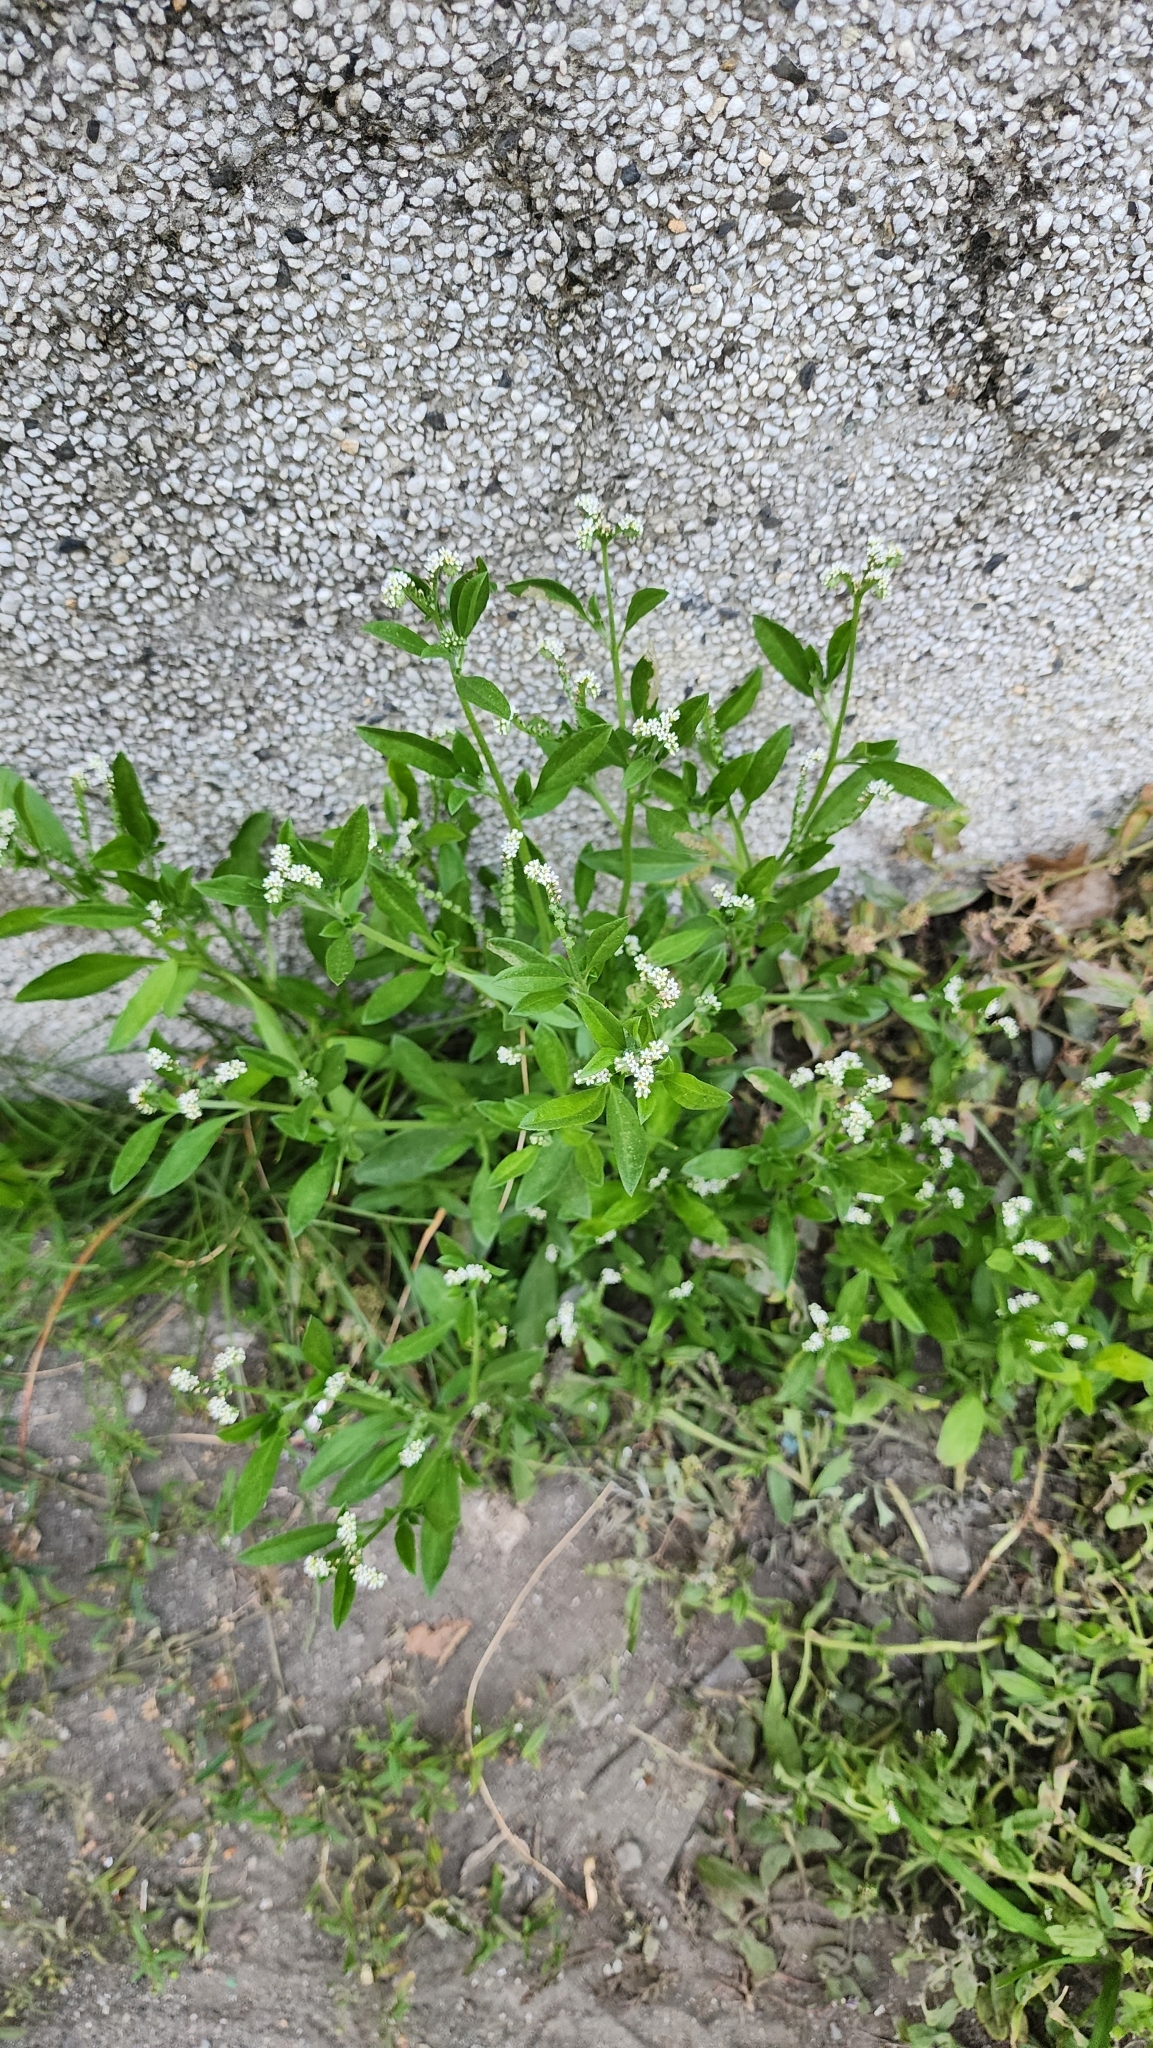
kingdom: Plantae
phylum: Tracheophyta
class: Magnoliopsida
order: Boraginales
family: Heliotropiaceae
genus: Euploca
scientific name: Euploca procumbens
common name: Fourspike heliotrope
